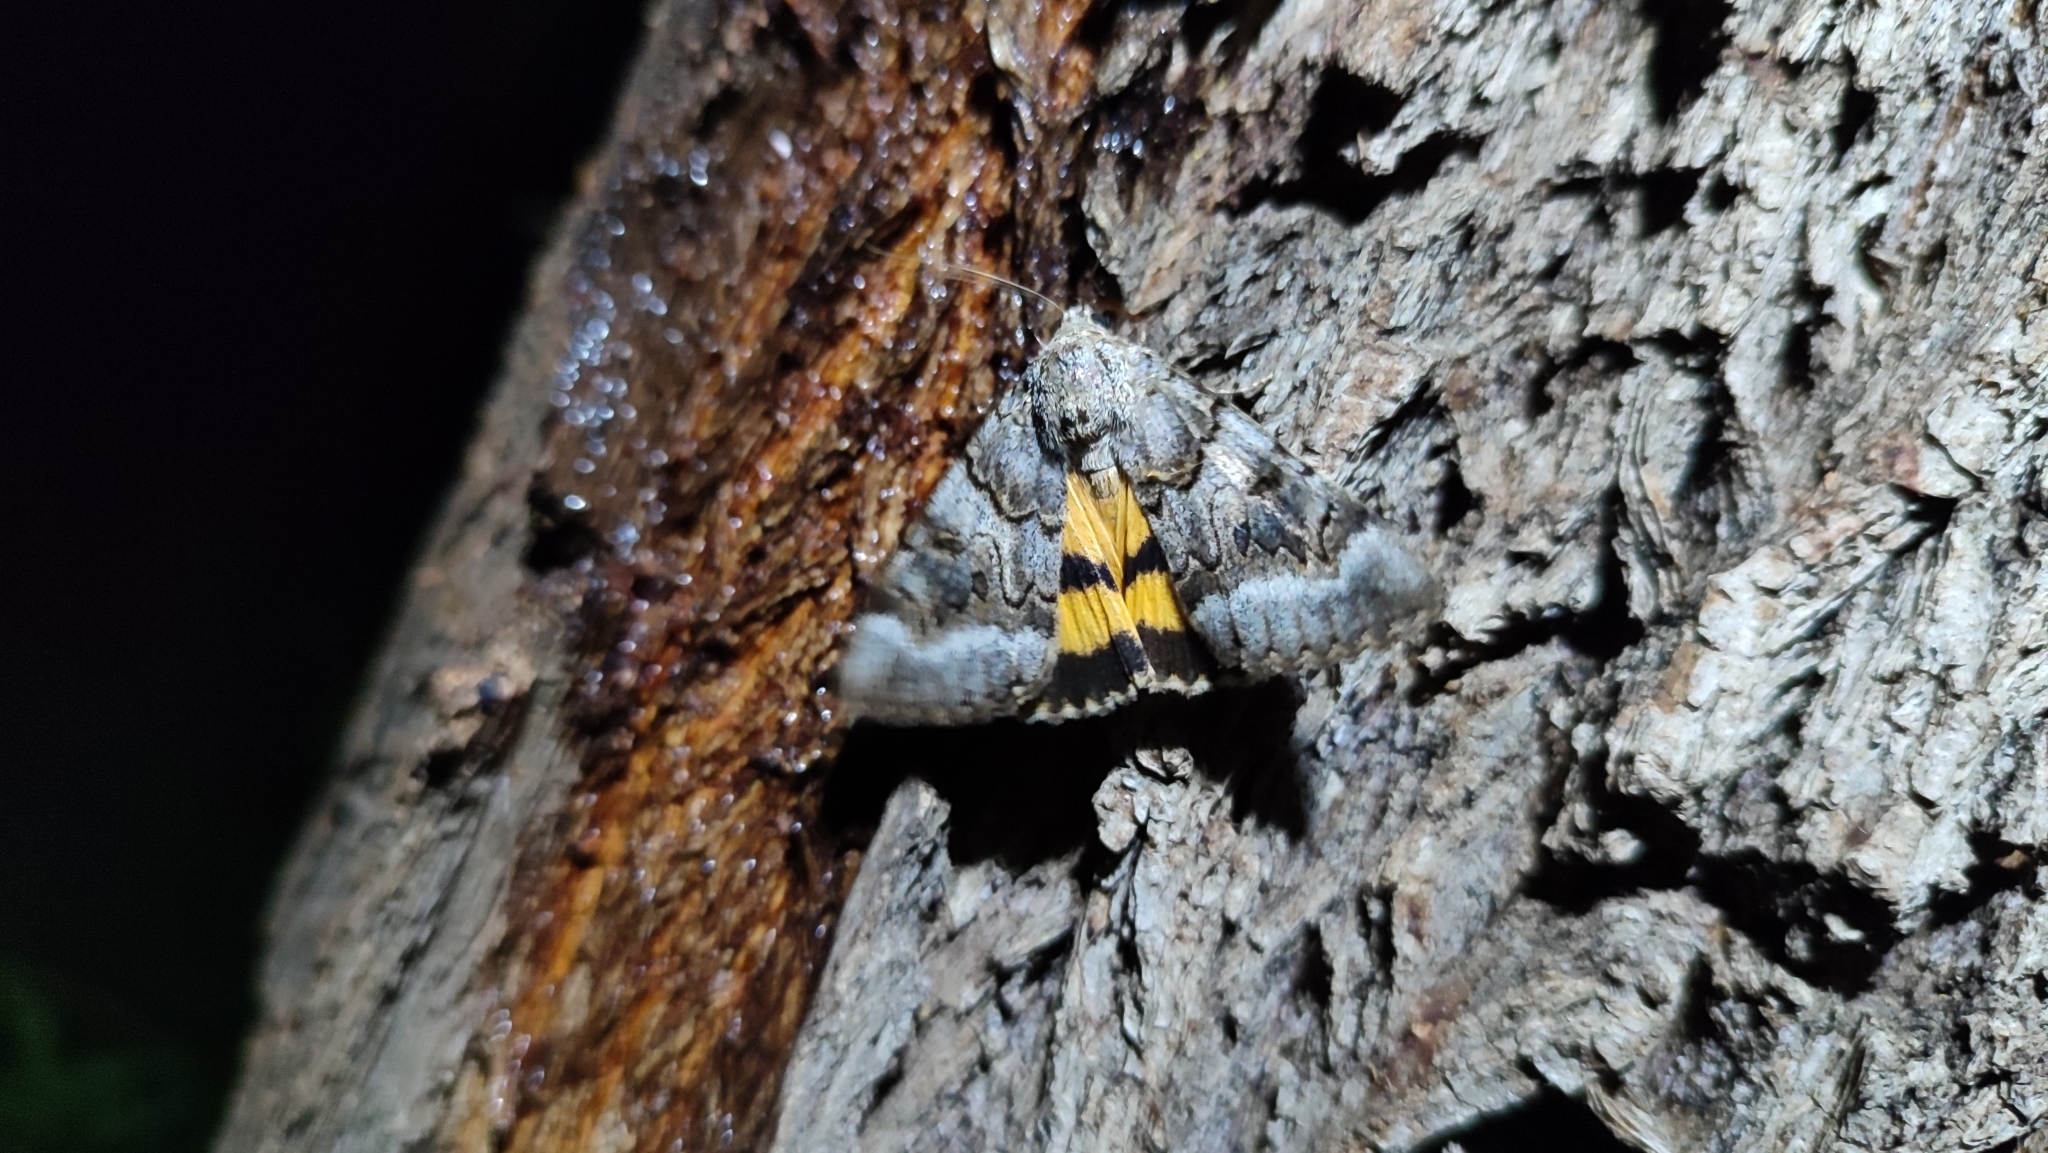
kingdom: Animalia
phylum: Arthropoda
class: Insecta
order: Lepidoptera
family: Erebidae
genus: Catocala
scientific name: Catocala neonympha
